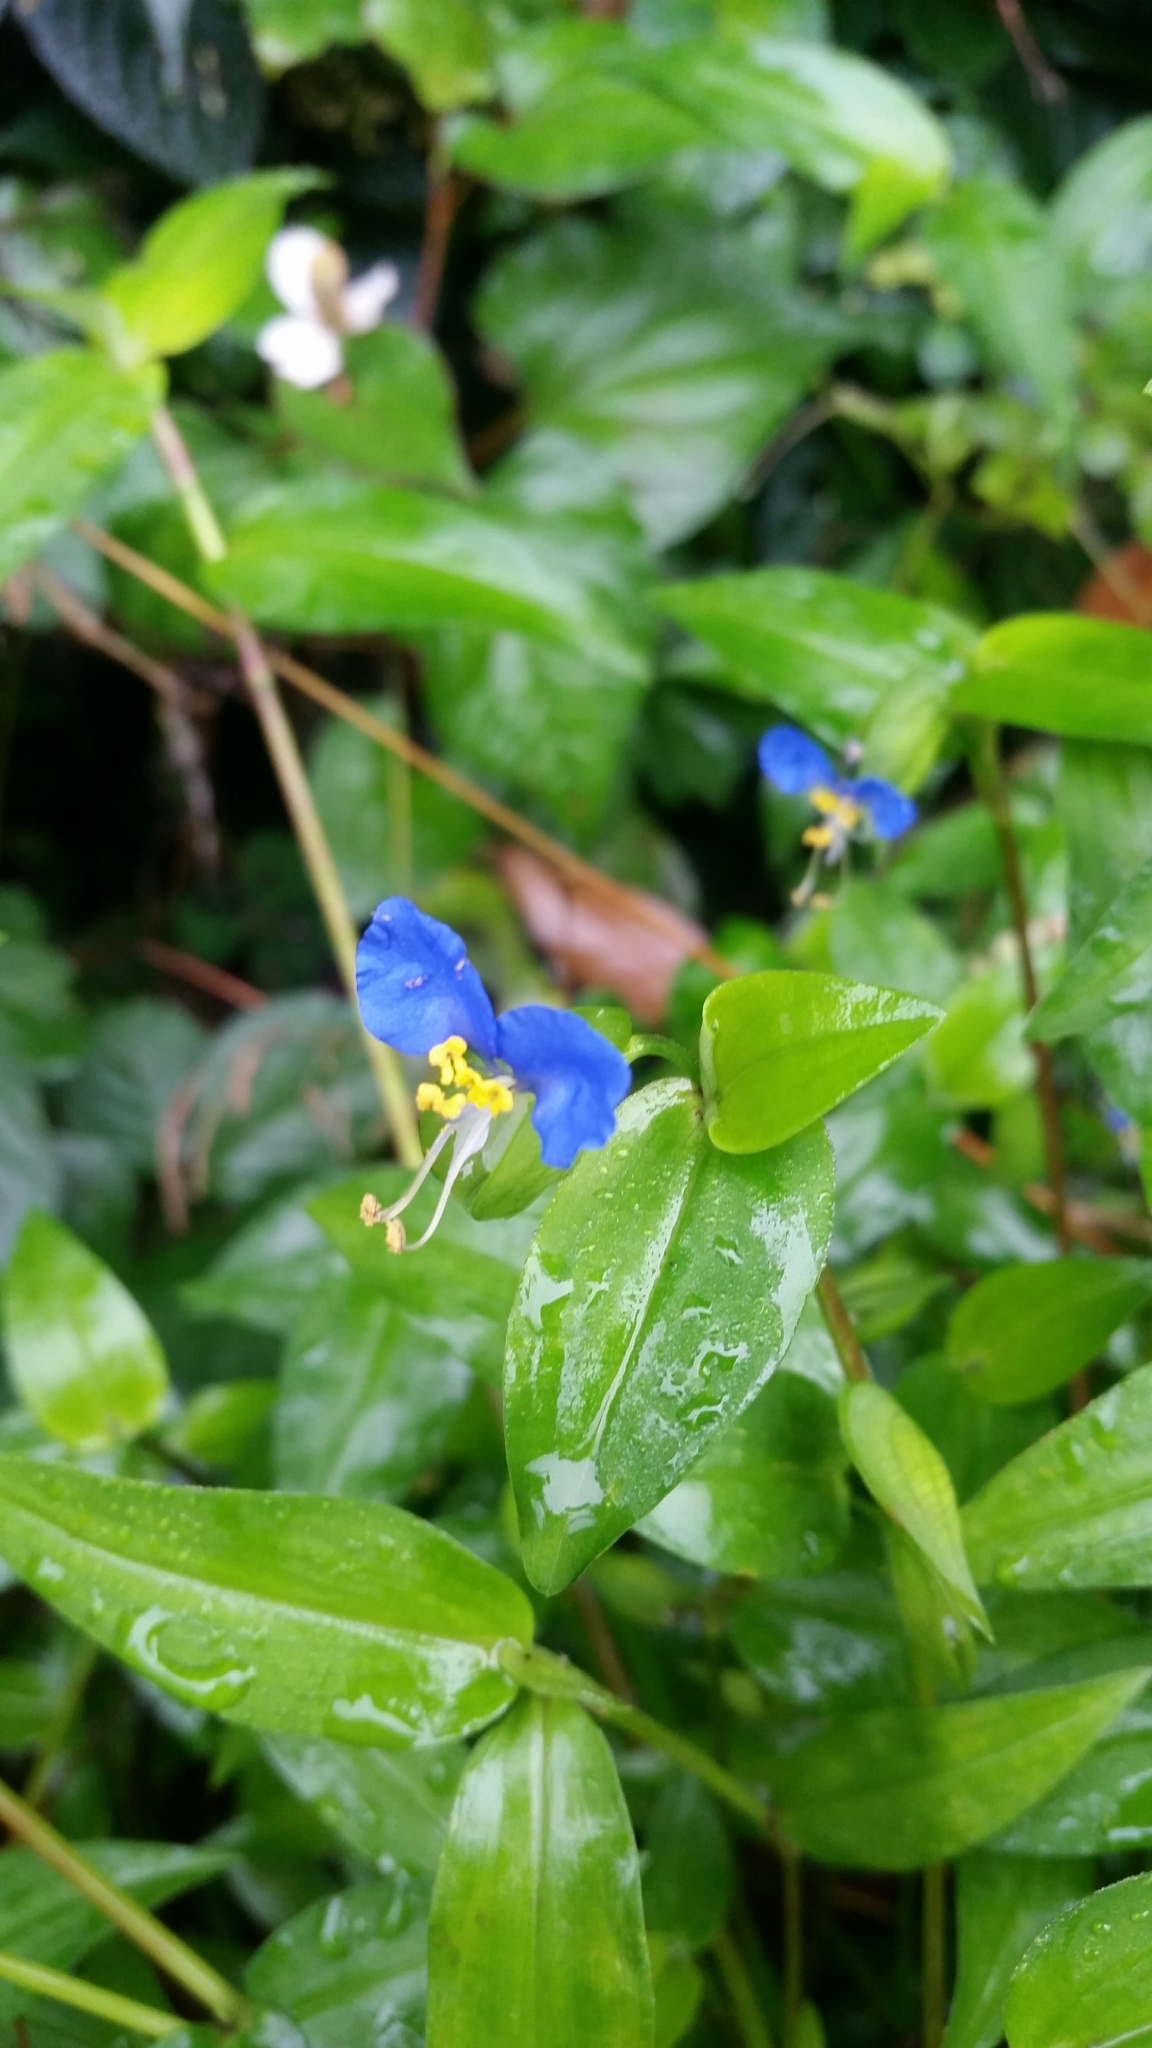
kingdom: Plantae
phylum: Tracheophyta
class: Liliopsida
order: Commelinales
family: Commelinaceae
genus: Commelina
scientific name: Commelina communis
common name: Asiatic dayflower
